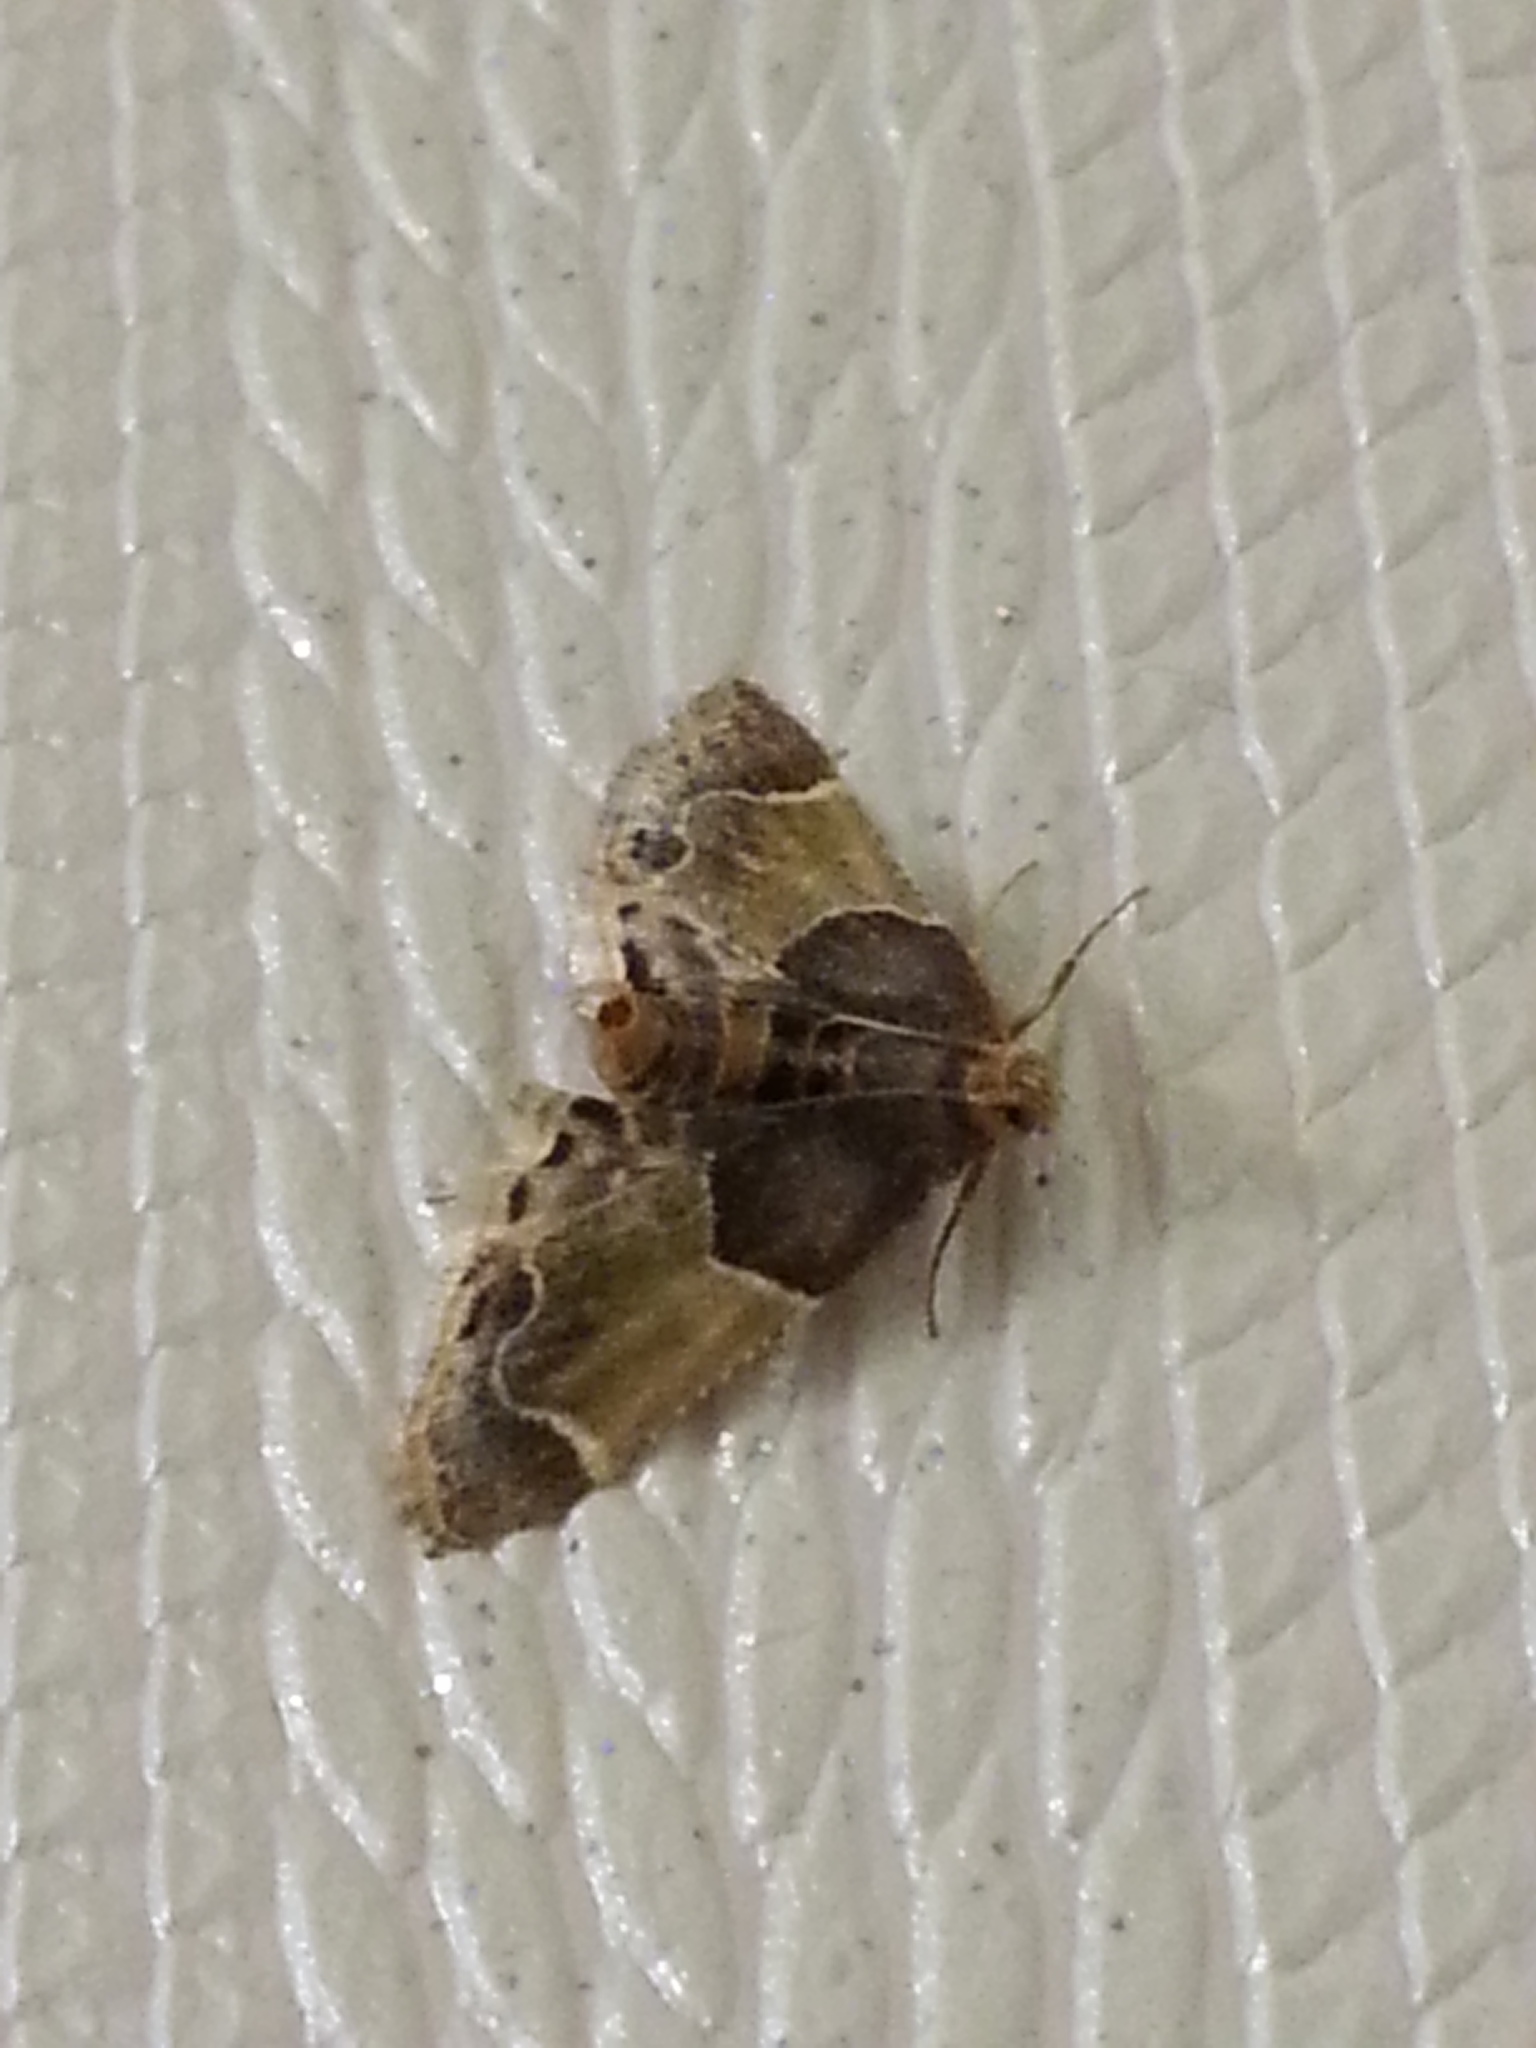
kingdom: Animalia
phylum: Arthropoda
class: Insecta
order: Lepidoptera
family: Pyralidae
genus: Pyralis
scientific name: Pyralis farinalis
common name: Meal moth
